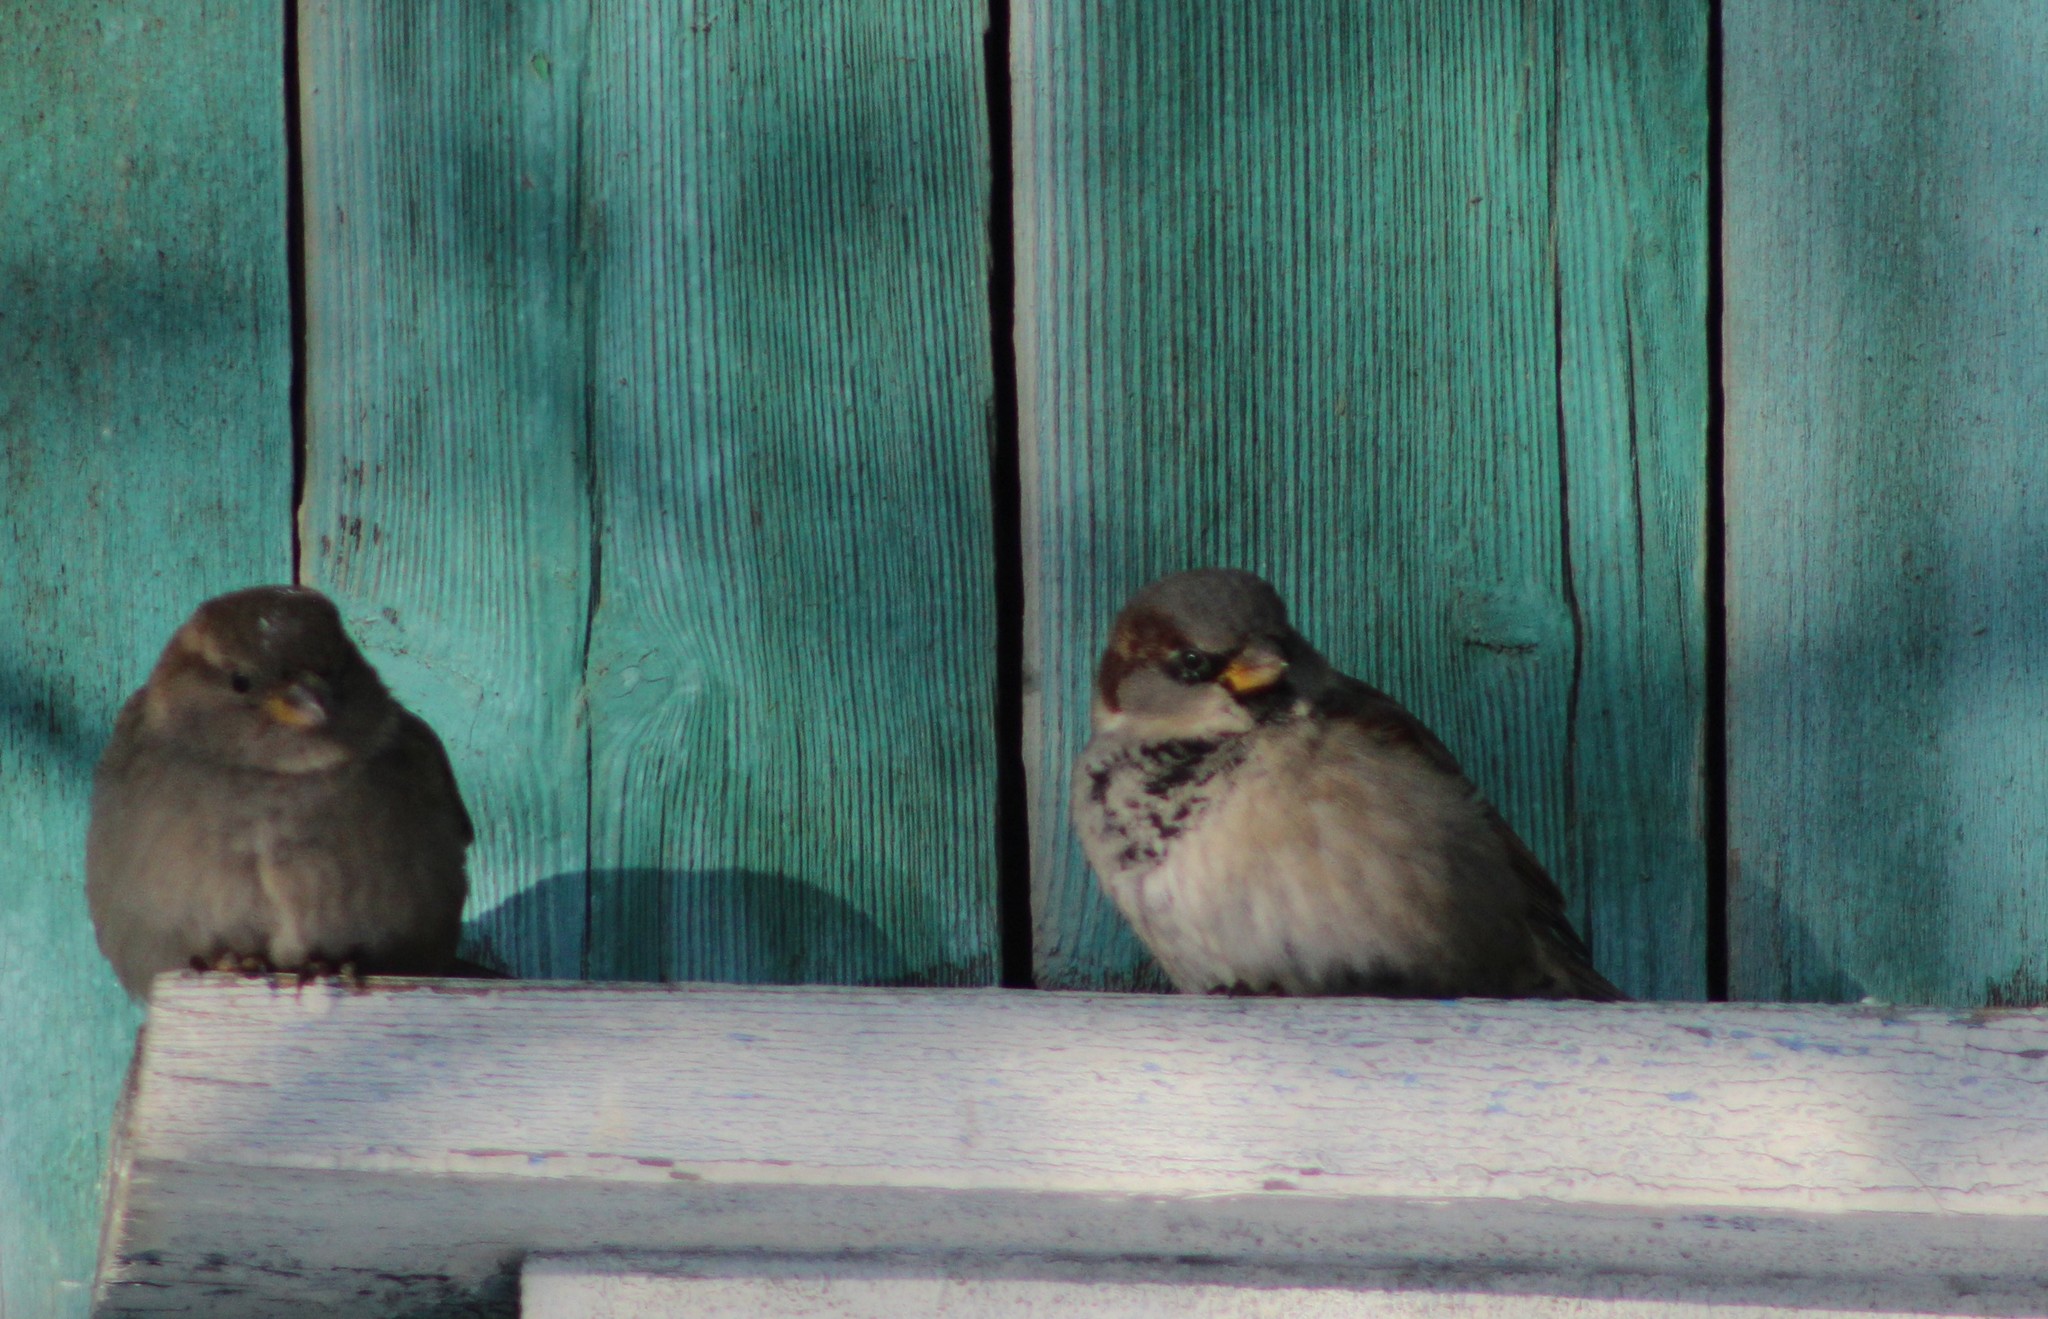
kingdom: Animalia
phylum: Chordata
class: Aves
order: Passeriformes
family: Passeridae
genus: Passer
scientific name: Passer domesticus
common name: House sparrow
